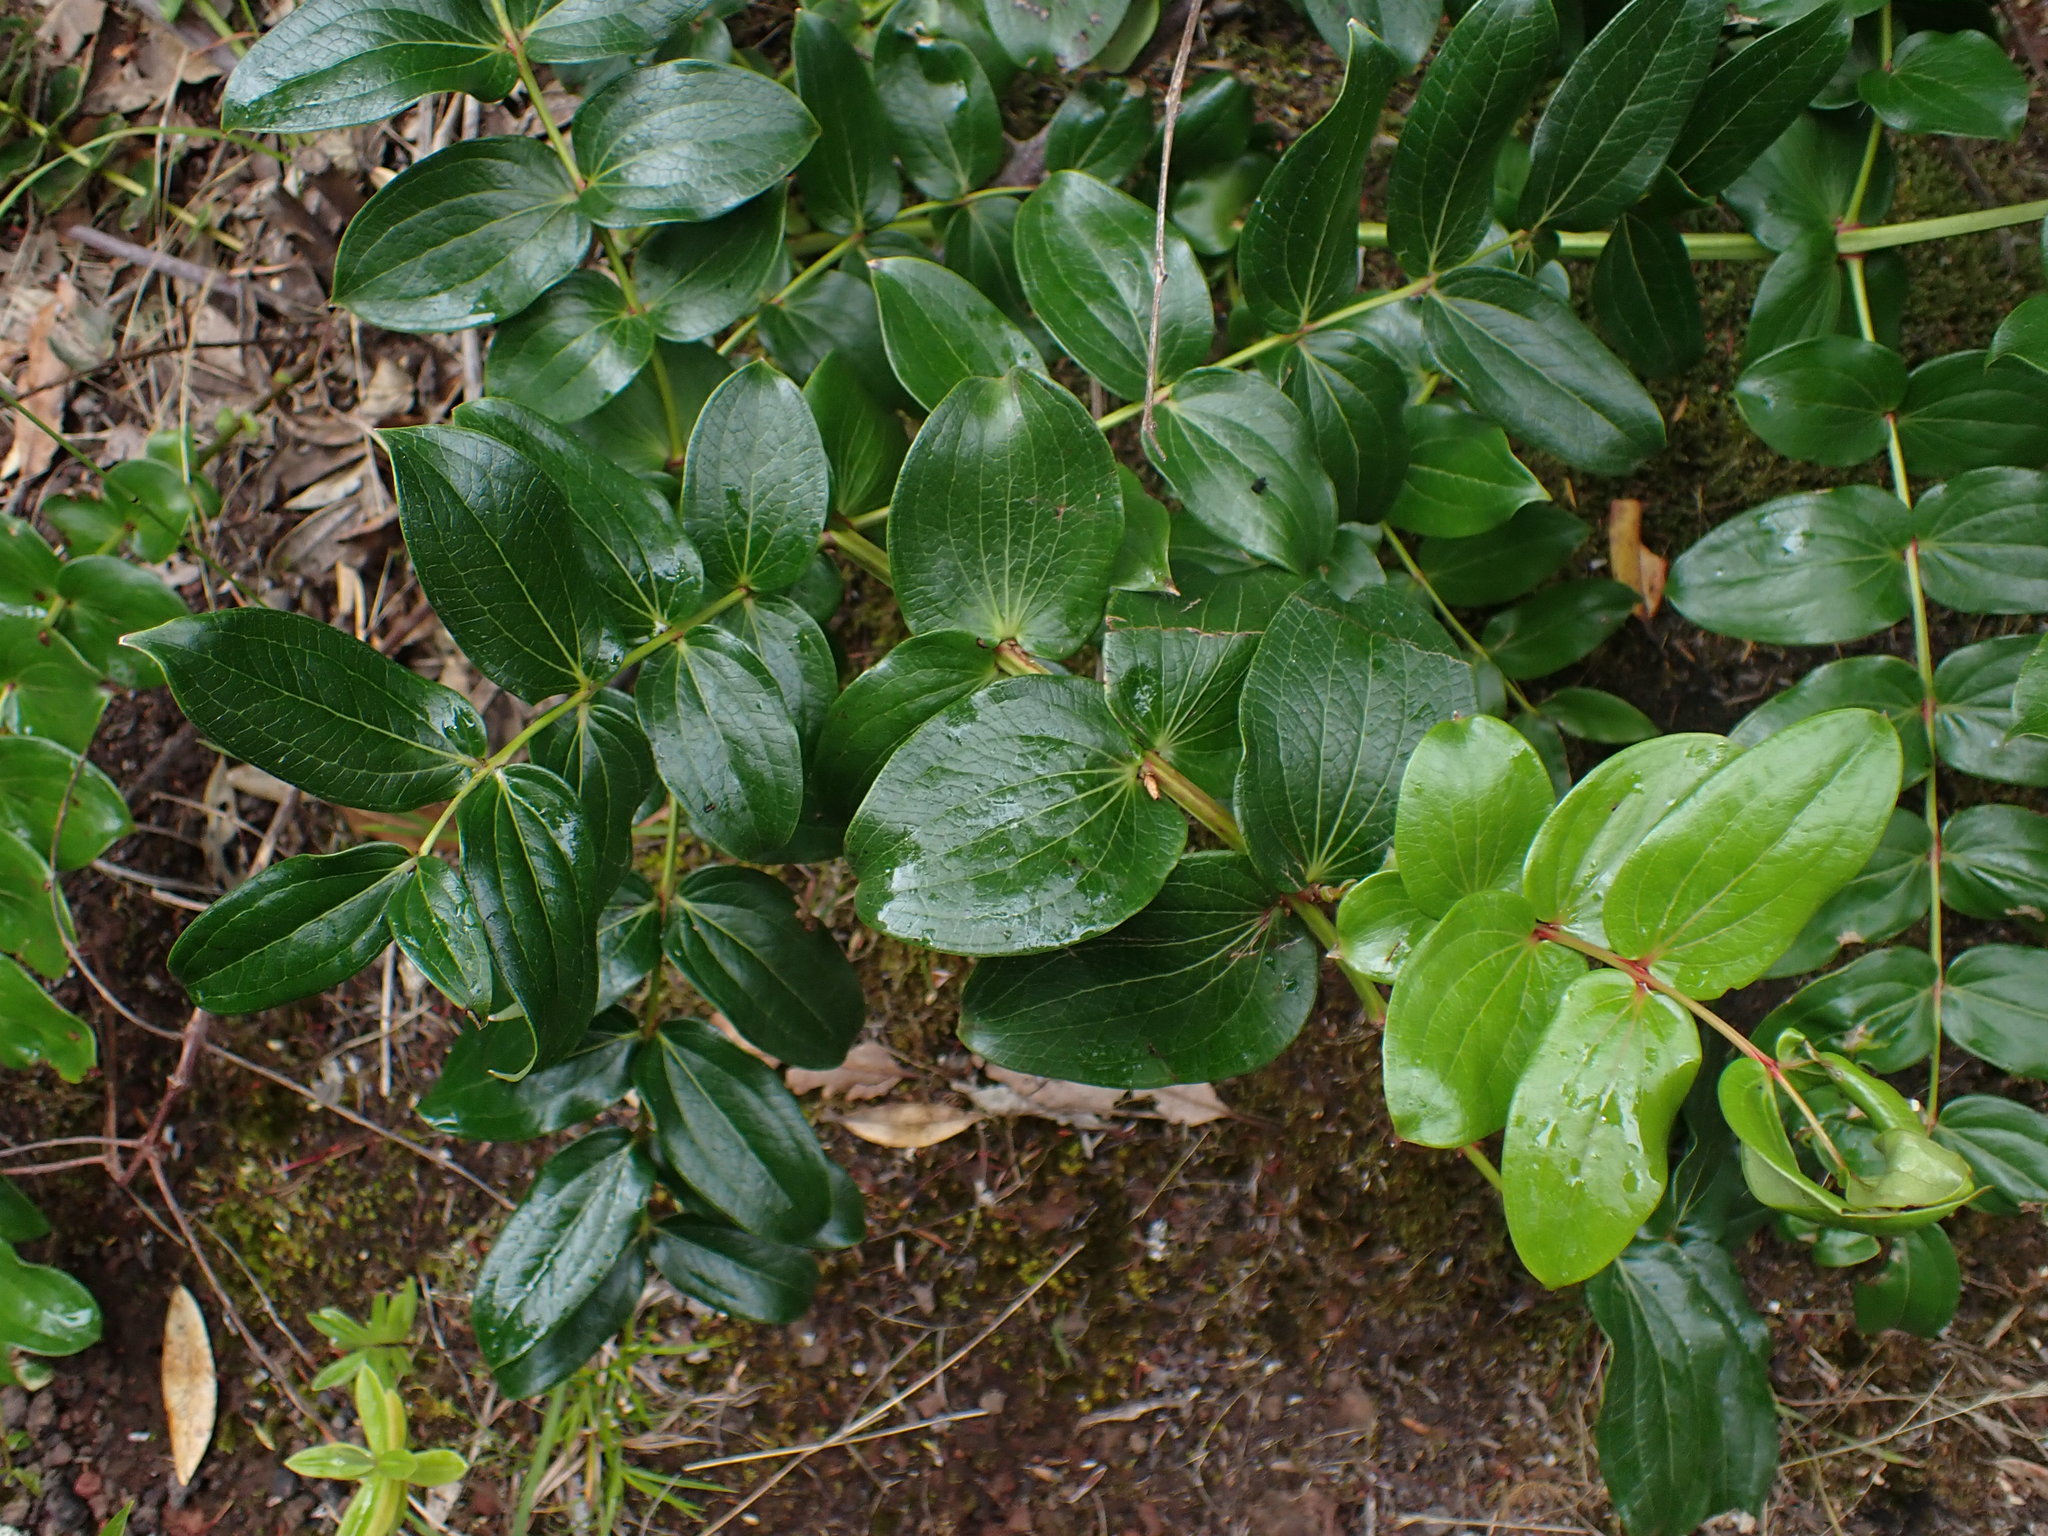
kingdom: Plantae
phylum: Tracheophyta
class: Magnoliopsida
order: Cucurbitales
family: Coriariaceae
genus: Coriaria
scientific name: Coriaria arborea
